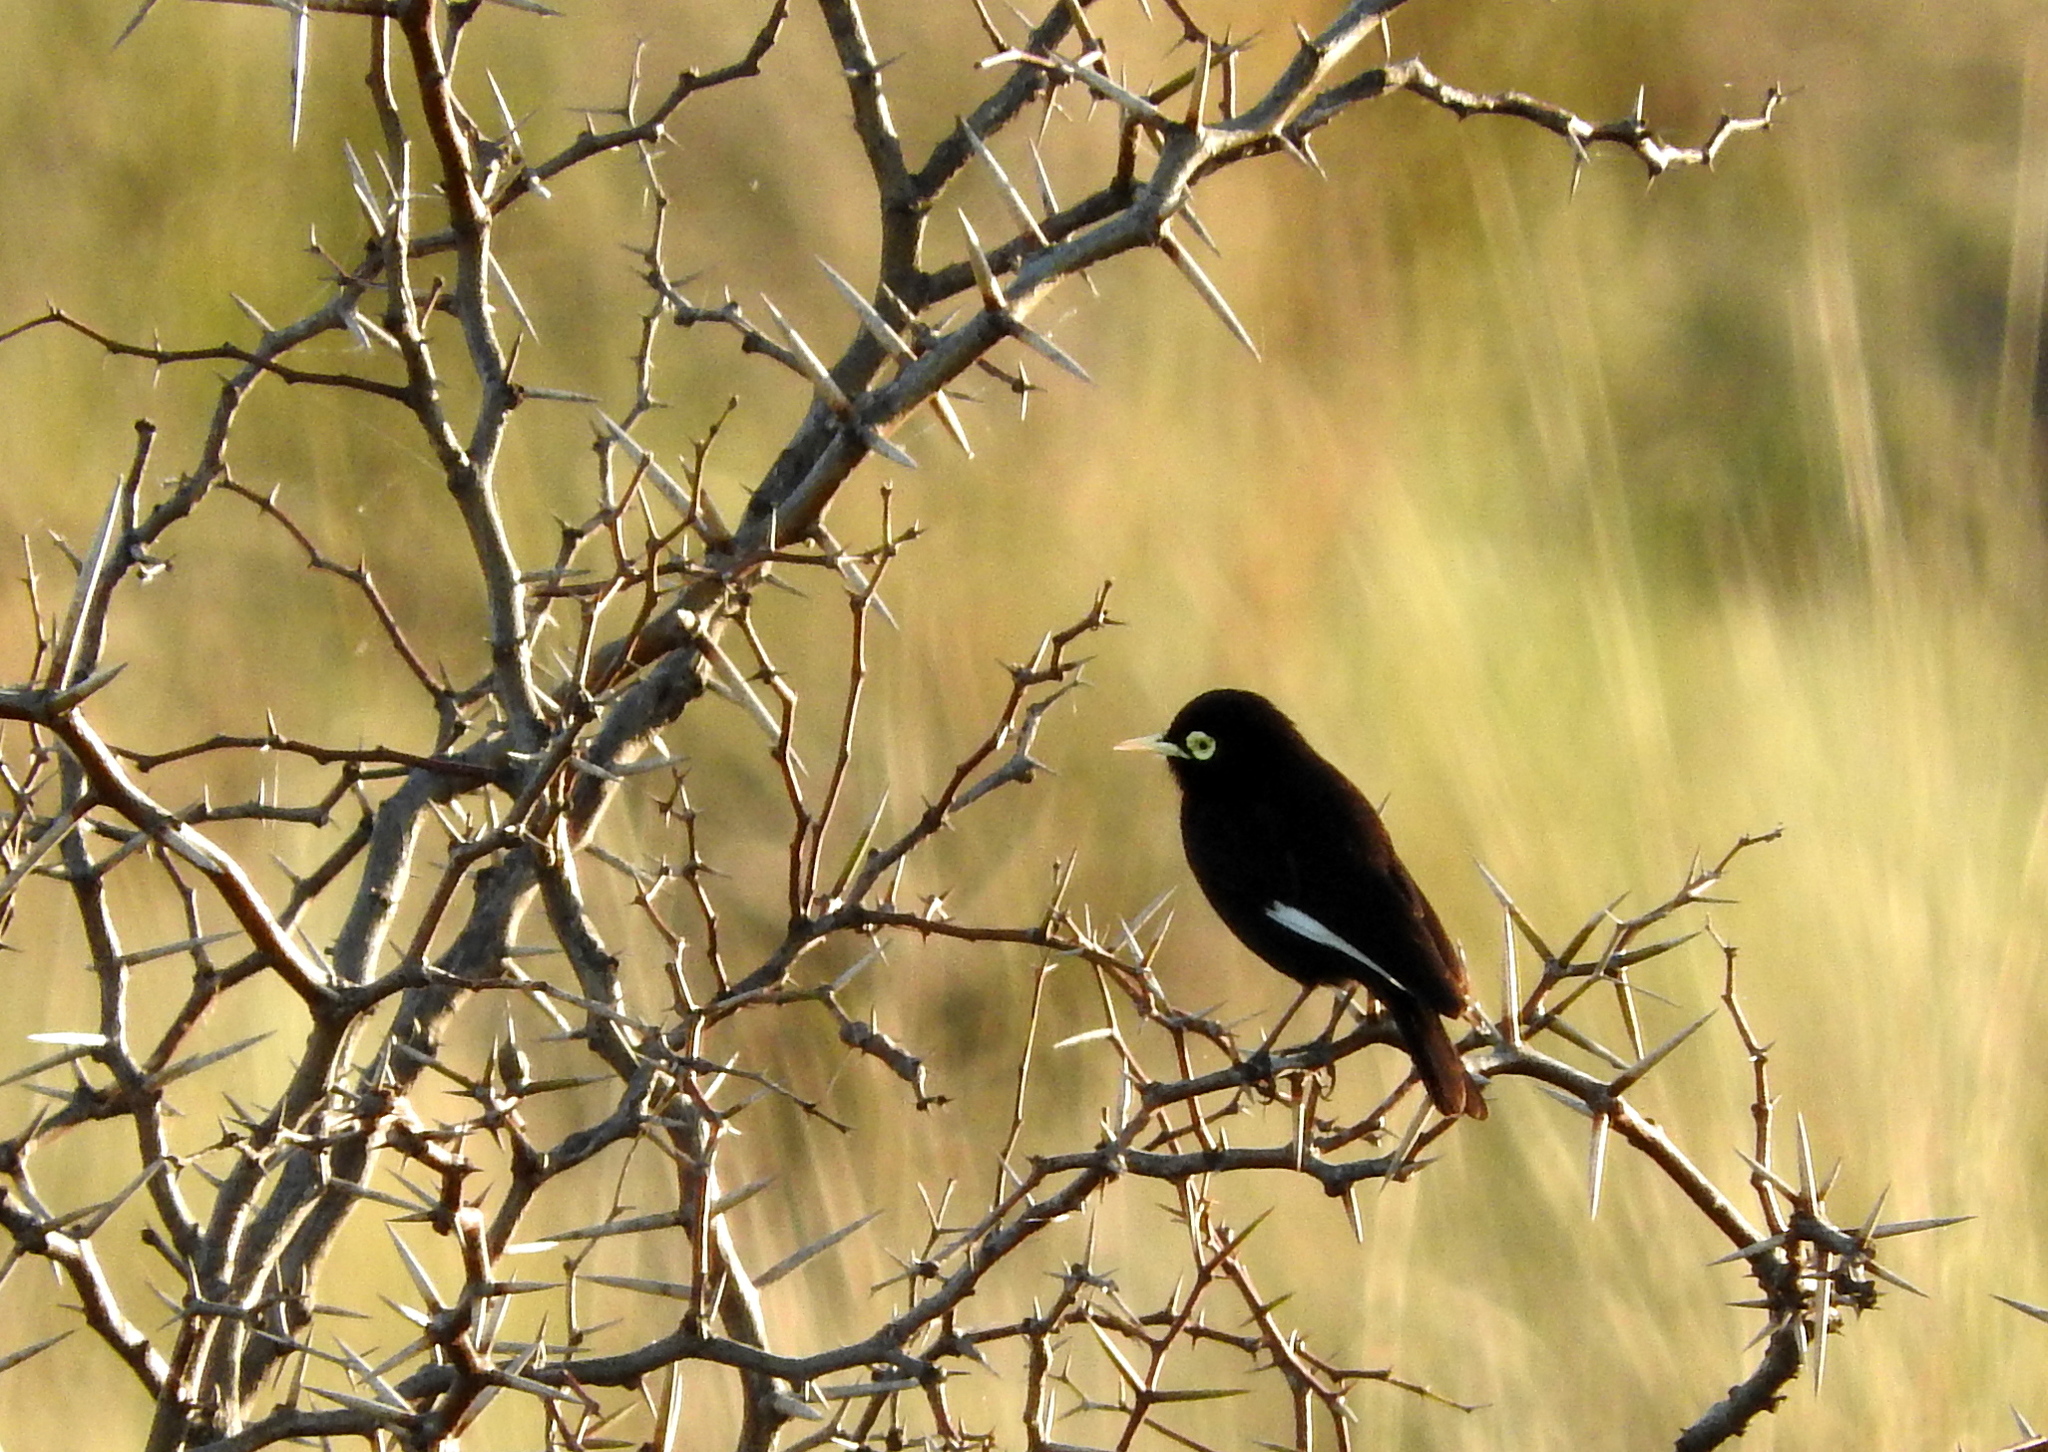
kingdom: Animalia
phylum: Chordata
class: Aves
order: Passeriformes
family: Tyrannidae
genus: Hymenops
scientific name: Hymenops perspicillatus
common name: Spectacled tyrant
